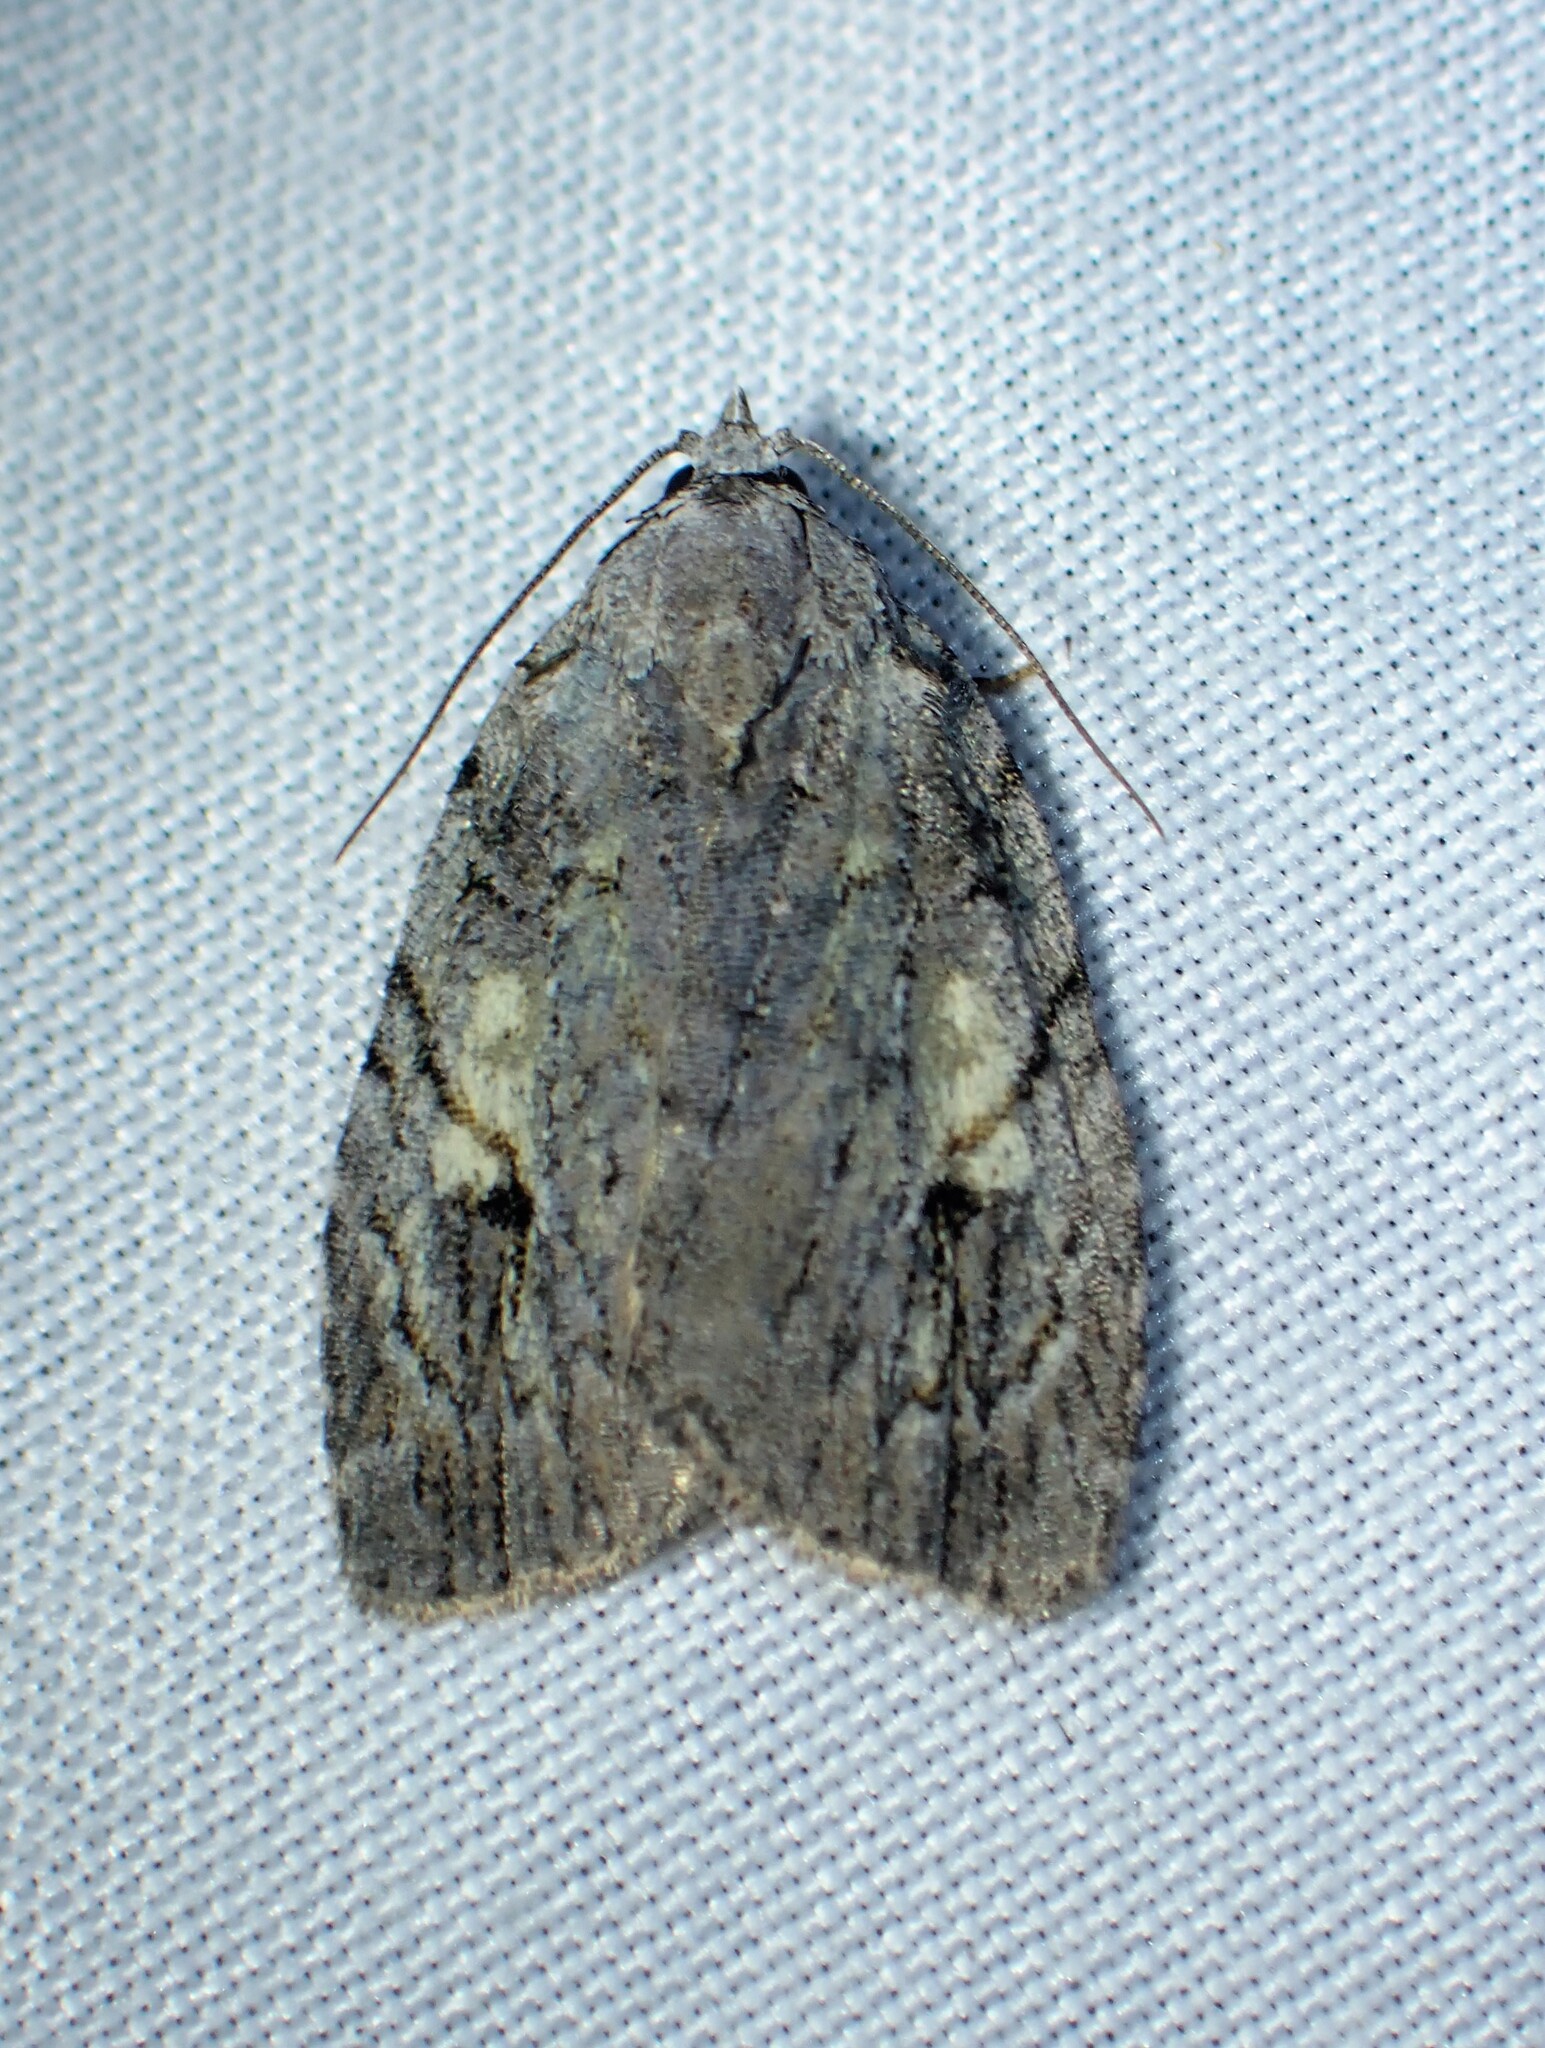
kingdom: Animalia
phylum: Arthropoda
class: Insecta
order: Lepidoptera
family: Noctuidae
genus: Balsa
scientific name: Balsa labecula
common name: White-blotched balsa moth
